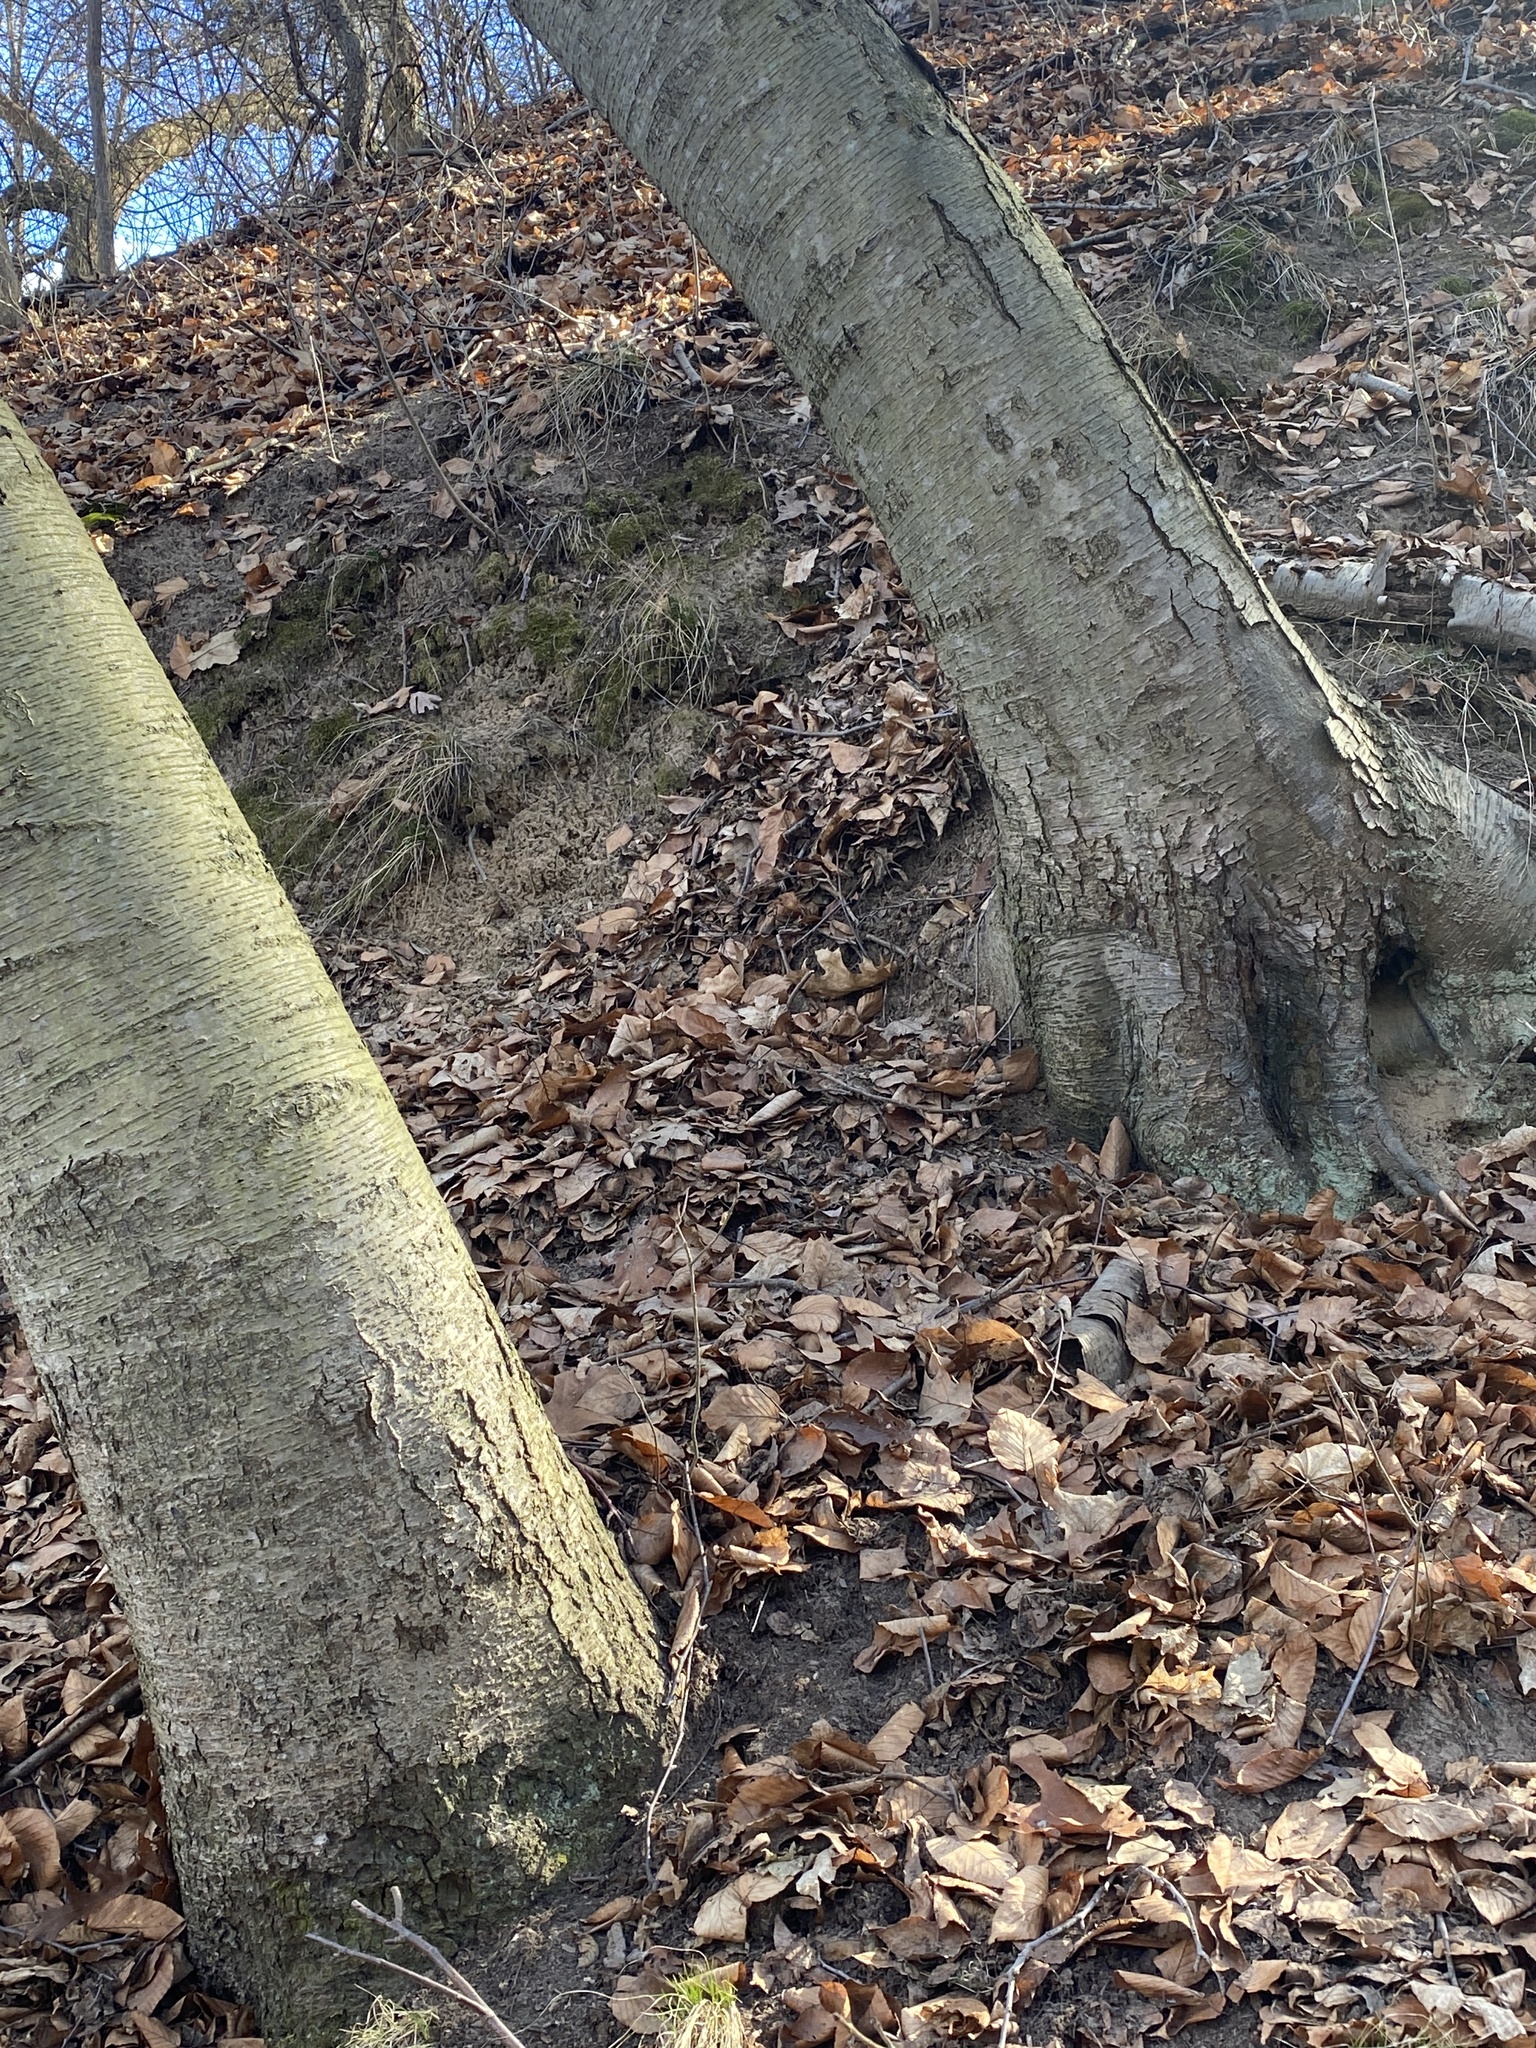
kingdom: Plantae
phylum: Tracheophyta
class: Magnoliopsida
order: Fagales
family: Betulaceae
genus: Betula
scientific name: Betula lenta
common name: Black birch
